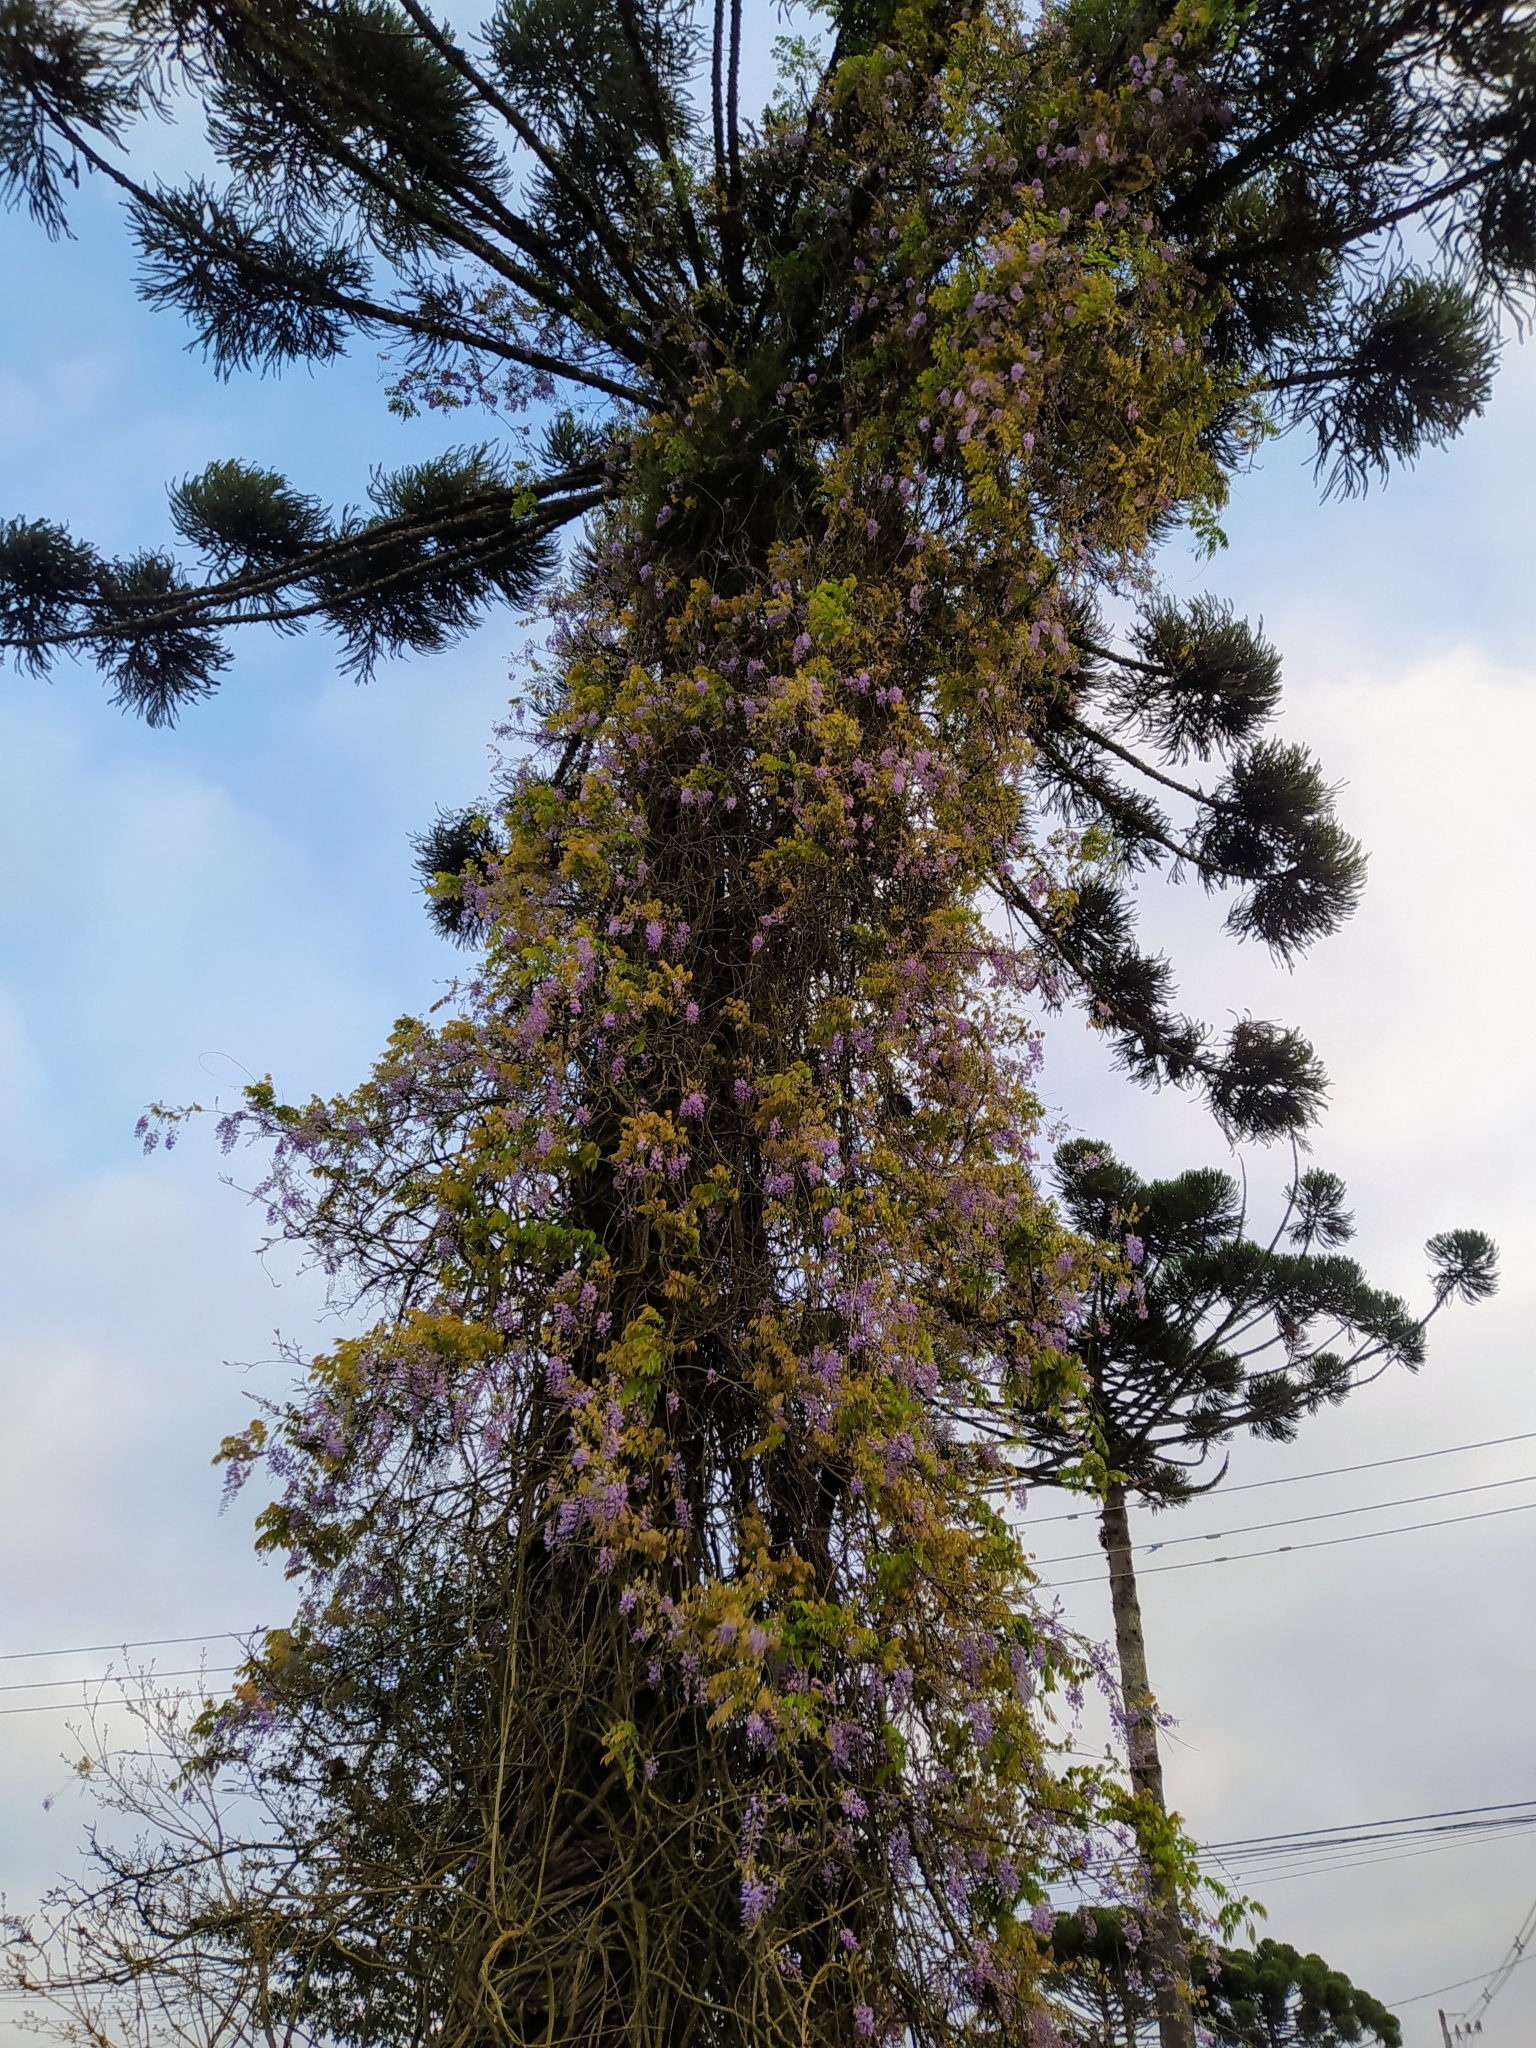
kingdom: Plantae
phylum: Tracheophyta
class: Pinopsida
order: Pinales
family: Araucariaceae
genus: Araucaria
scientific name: Araucaria angustifolia
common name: Candelabra tree
